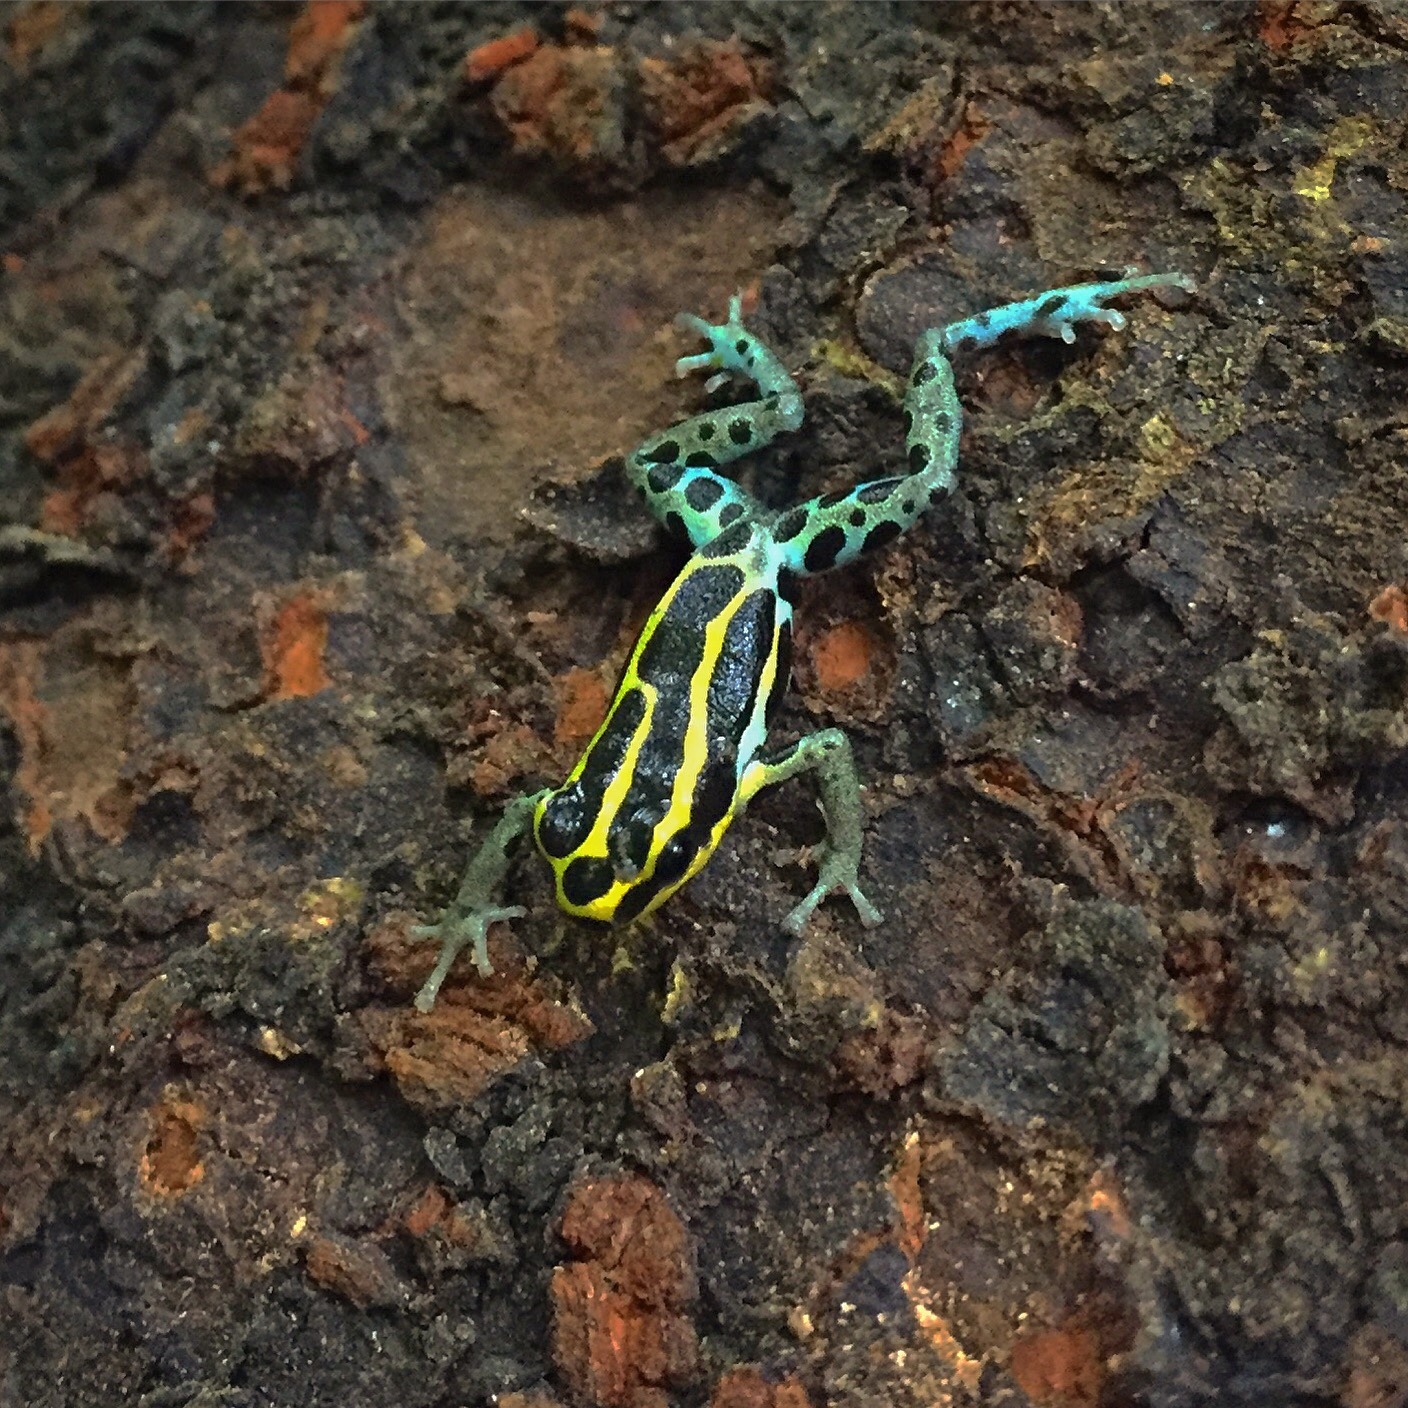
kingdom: Animalia
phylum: Chordata
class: Amphibia
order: Anura
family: Dendrobatidae
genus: Ranitomeya
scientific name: Ranitomeya variabilis
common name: Variable poison frog
